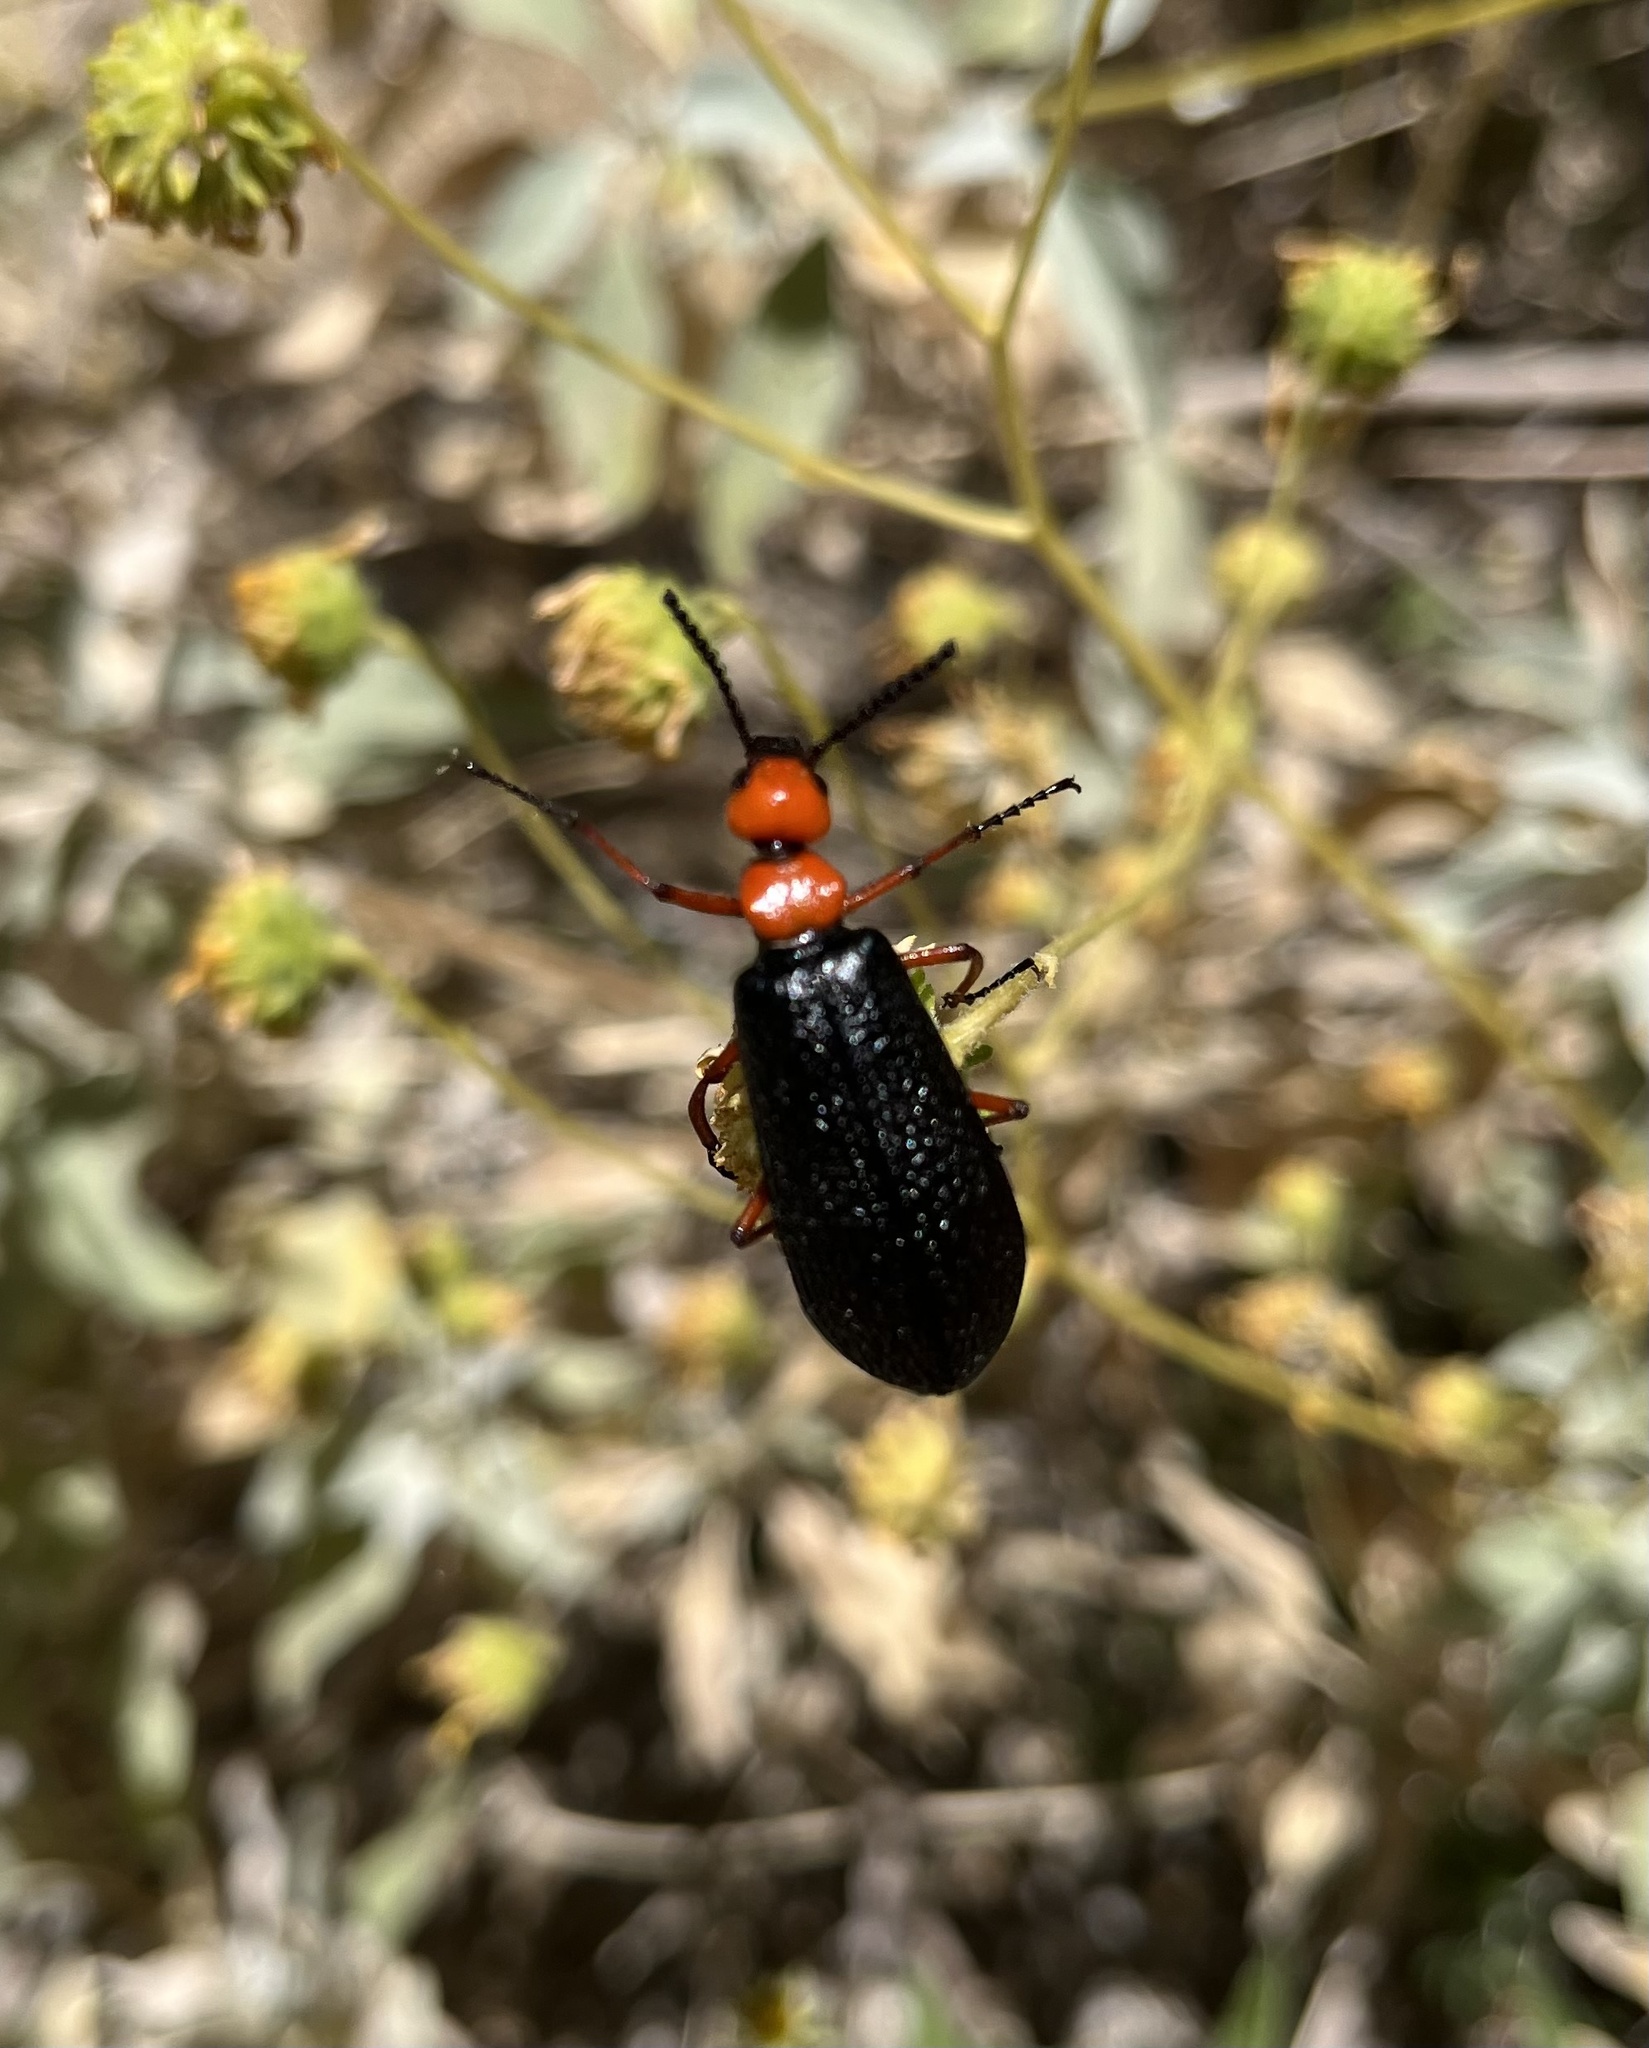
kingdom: Animalia
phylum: Arthropoda
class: Insecta
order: Coleoptera
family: Meloidae
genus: Lytta
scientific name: Lytta magister
